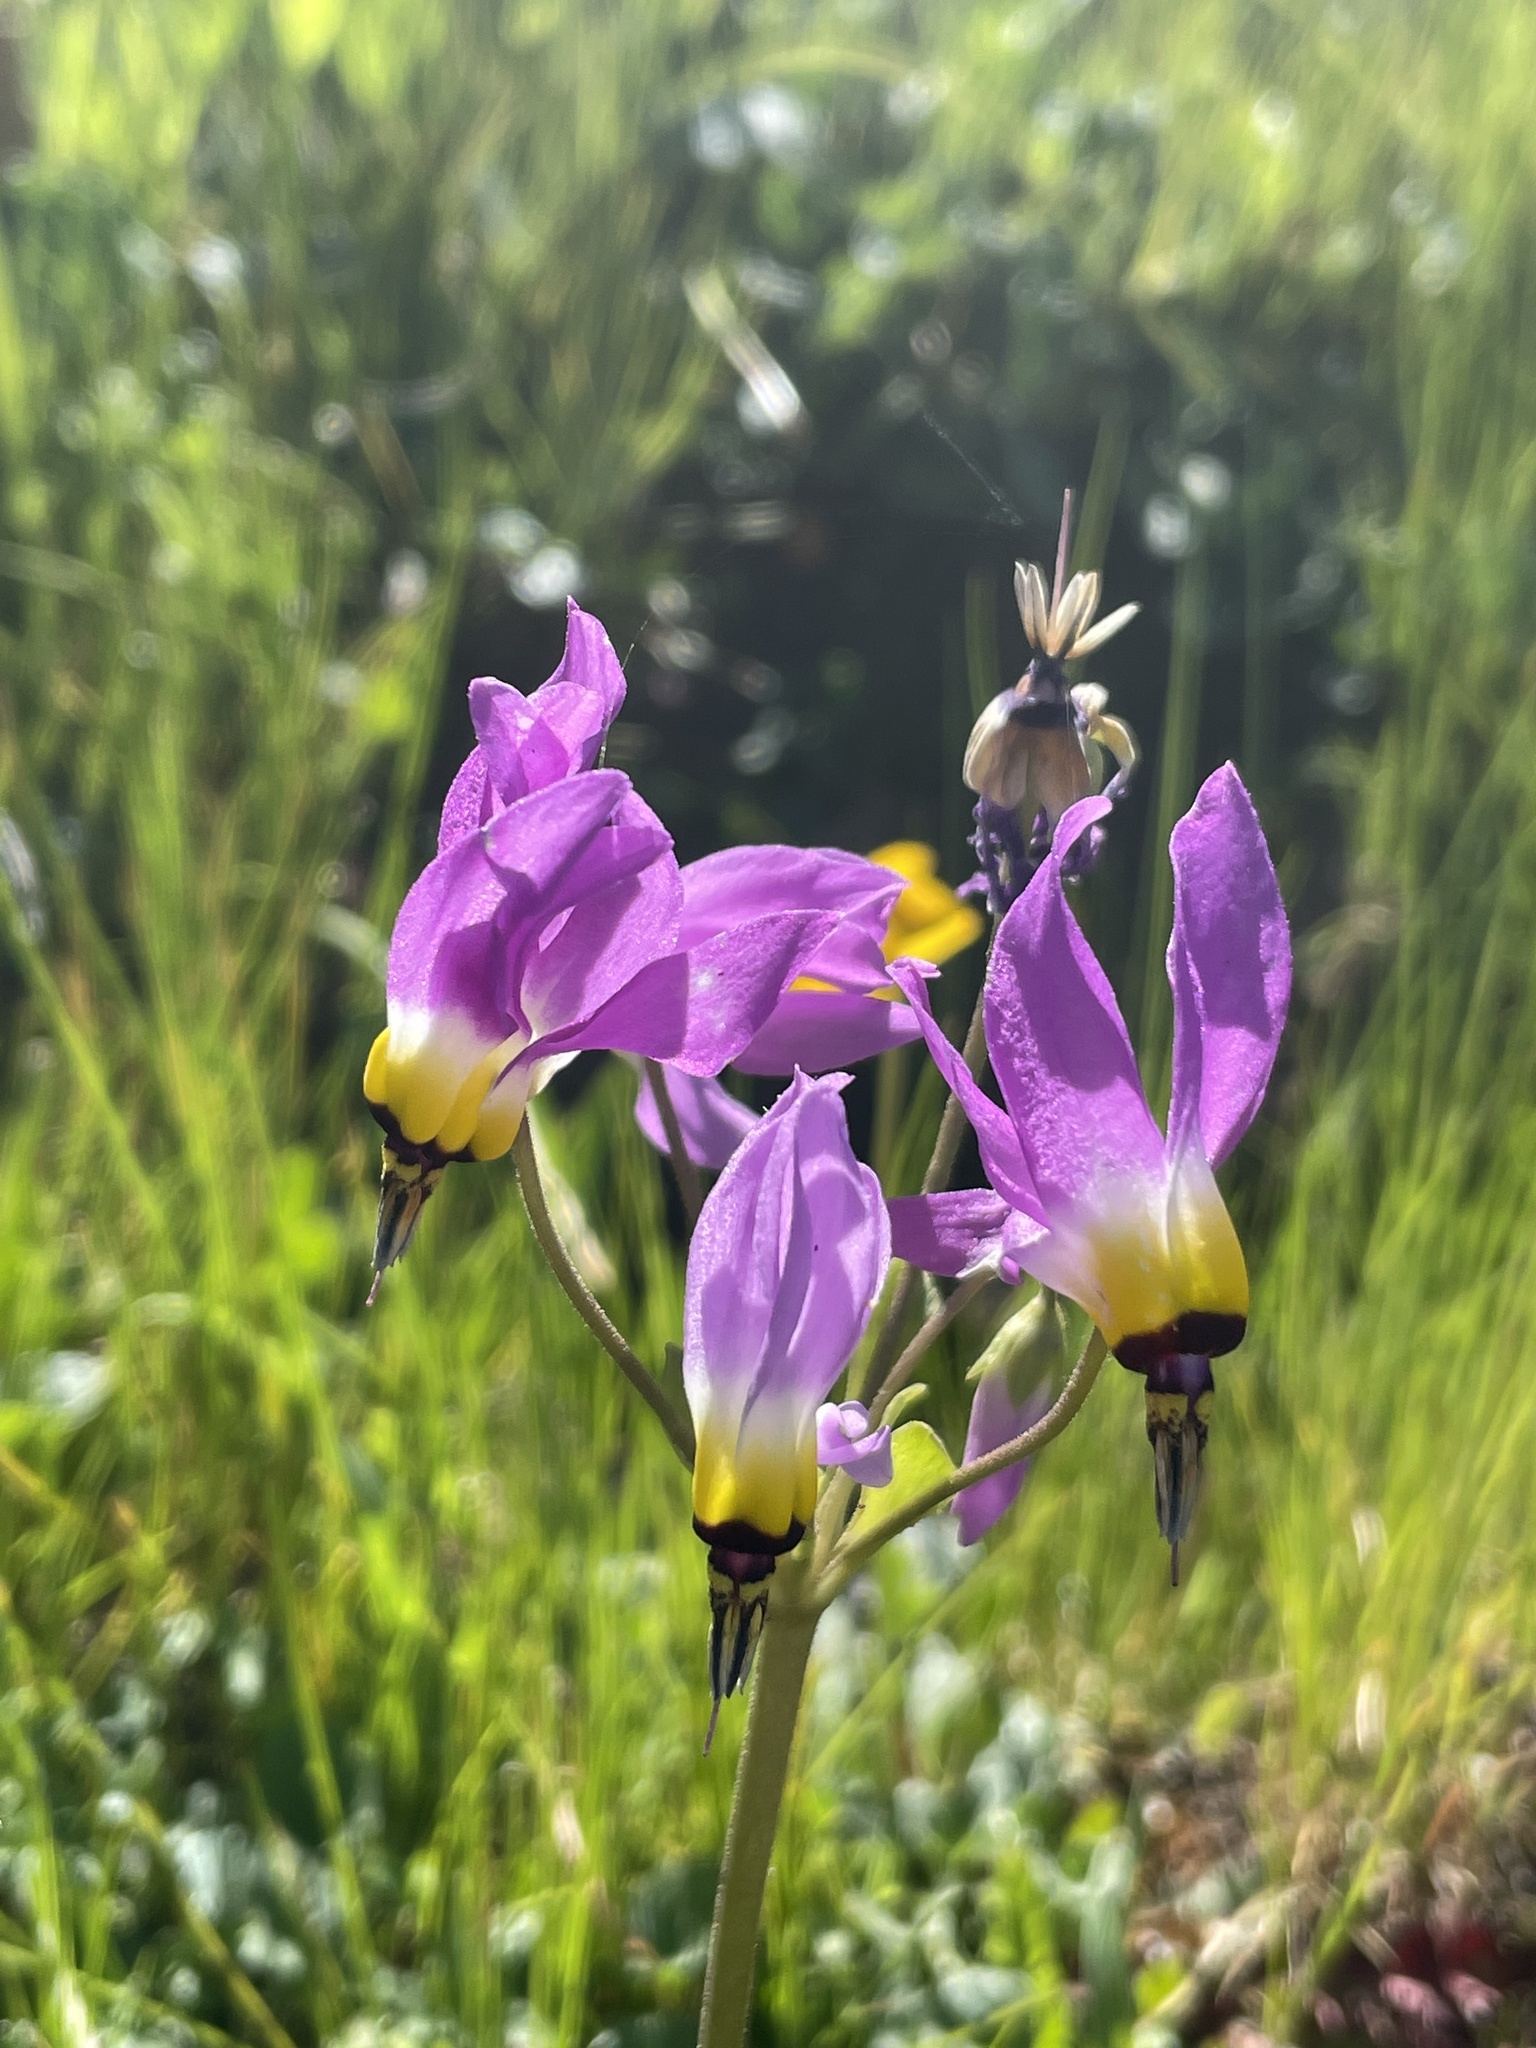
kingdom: Plantae
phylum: Tracheophyta
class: Magnoliopsida
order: Ericales
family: Primulaceae
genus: Dodecatheon
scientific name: Dodecatheon clevelandii
